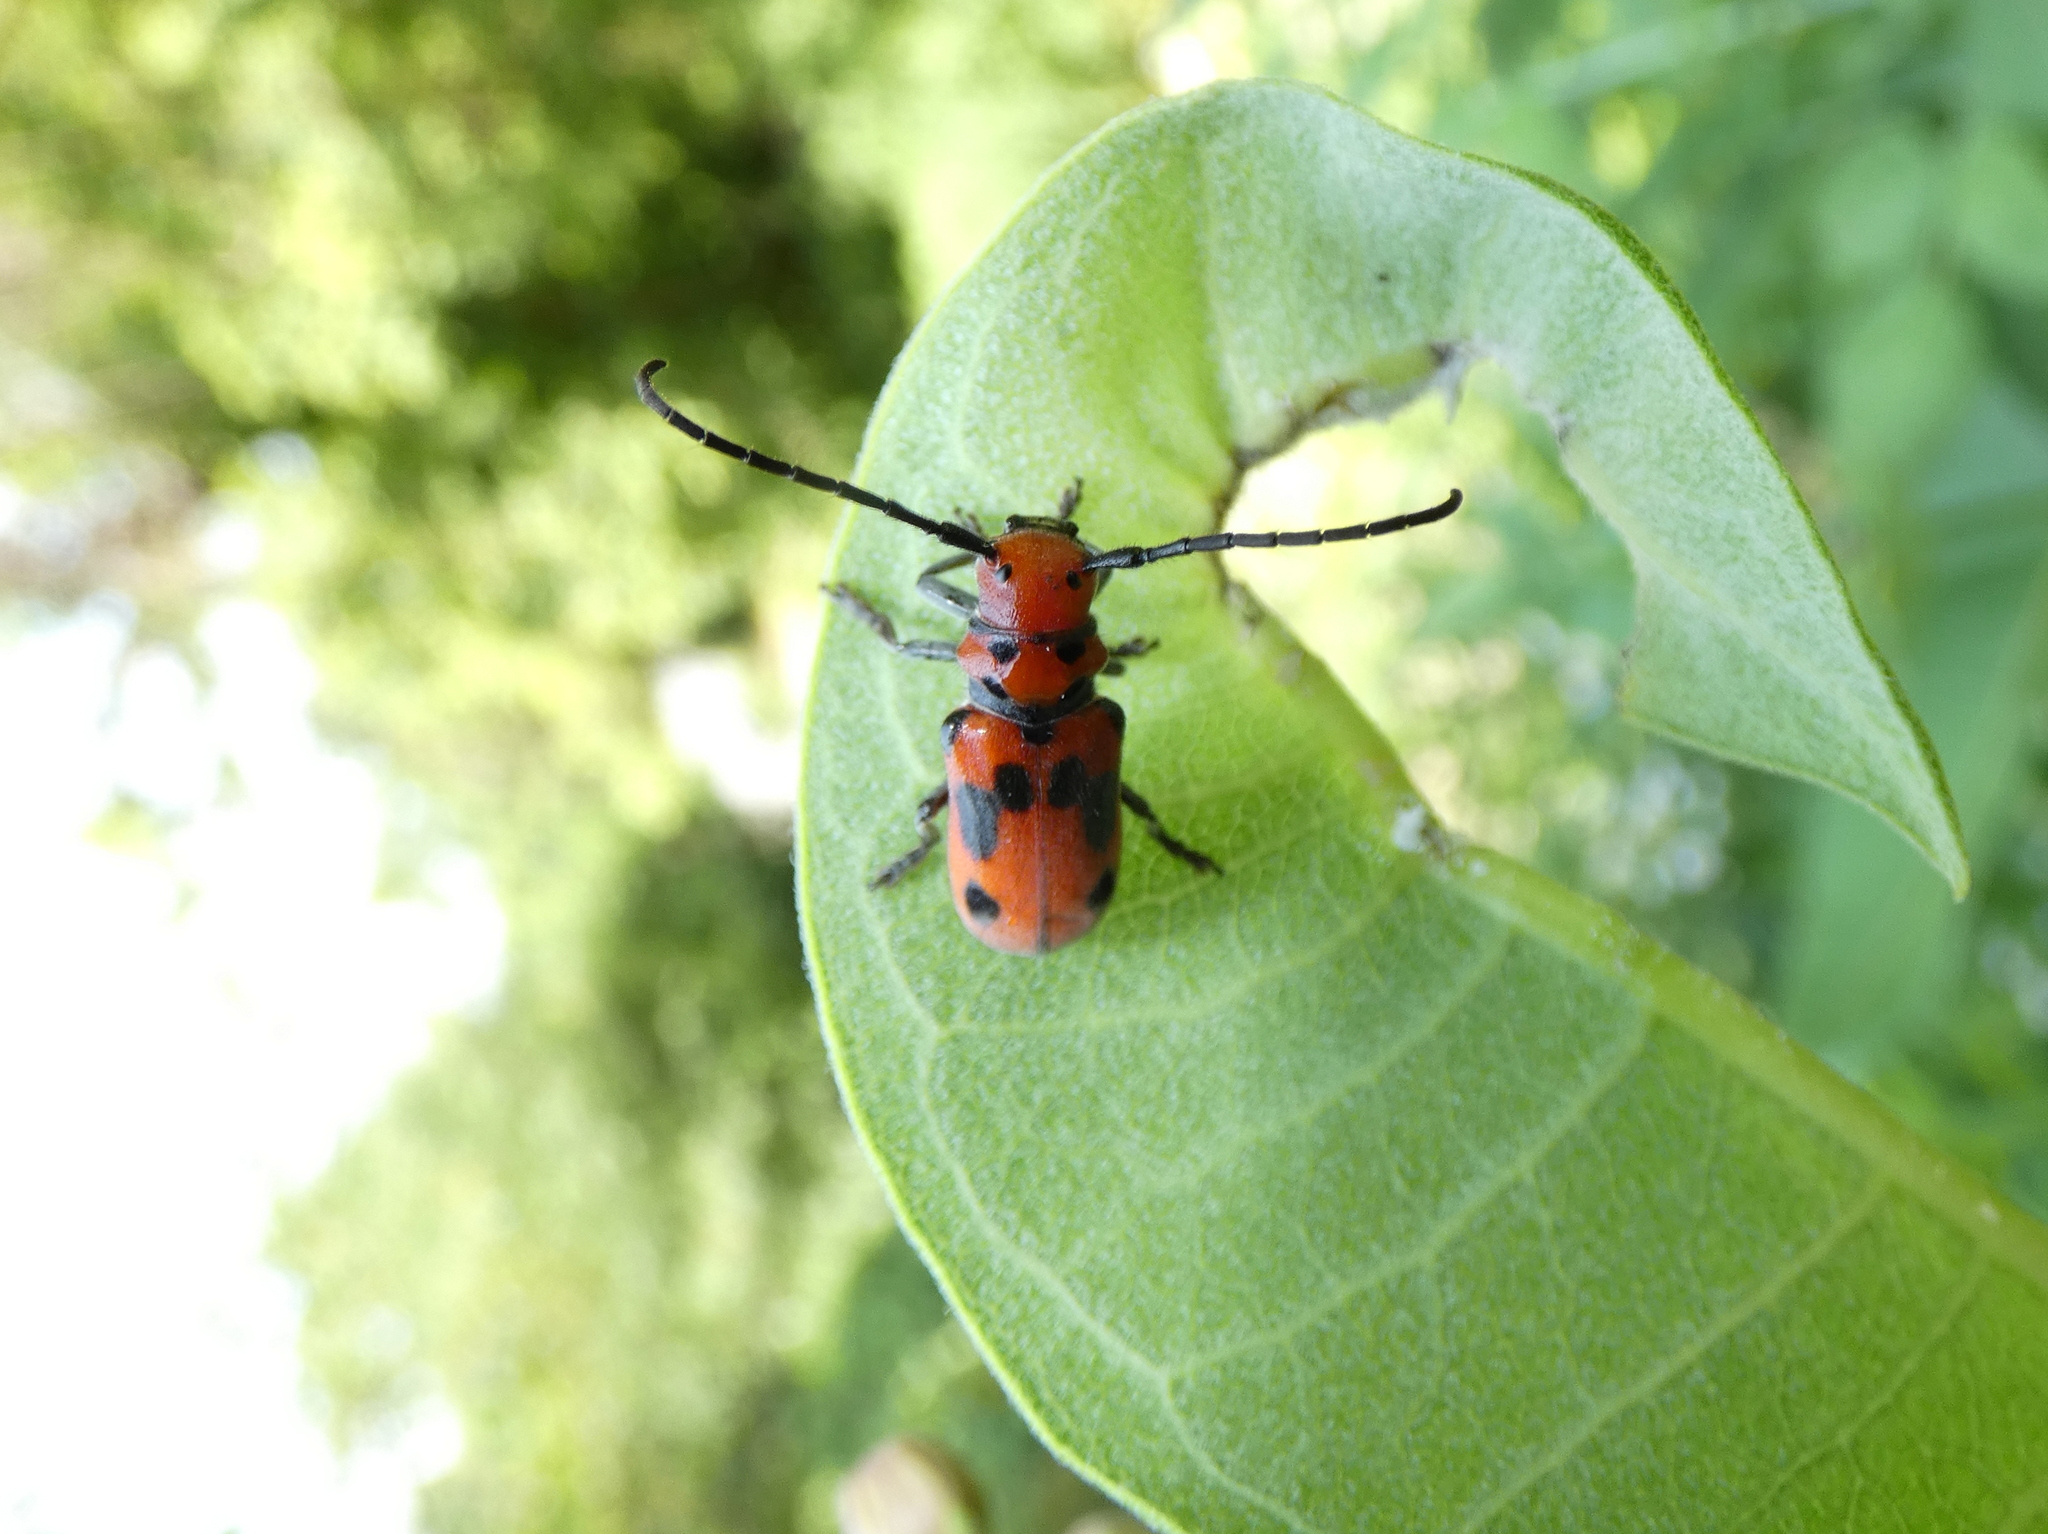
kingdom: Animalia
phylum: Arthropoda
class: Insecta
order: Coleoptera
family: Cerambycidae
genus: Tetraopes
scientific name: Tetraopes tetrophthalmus
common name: Red milkweed beetle
